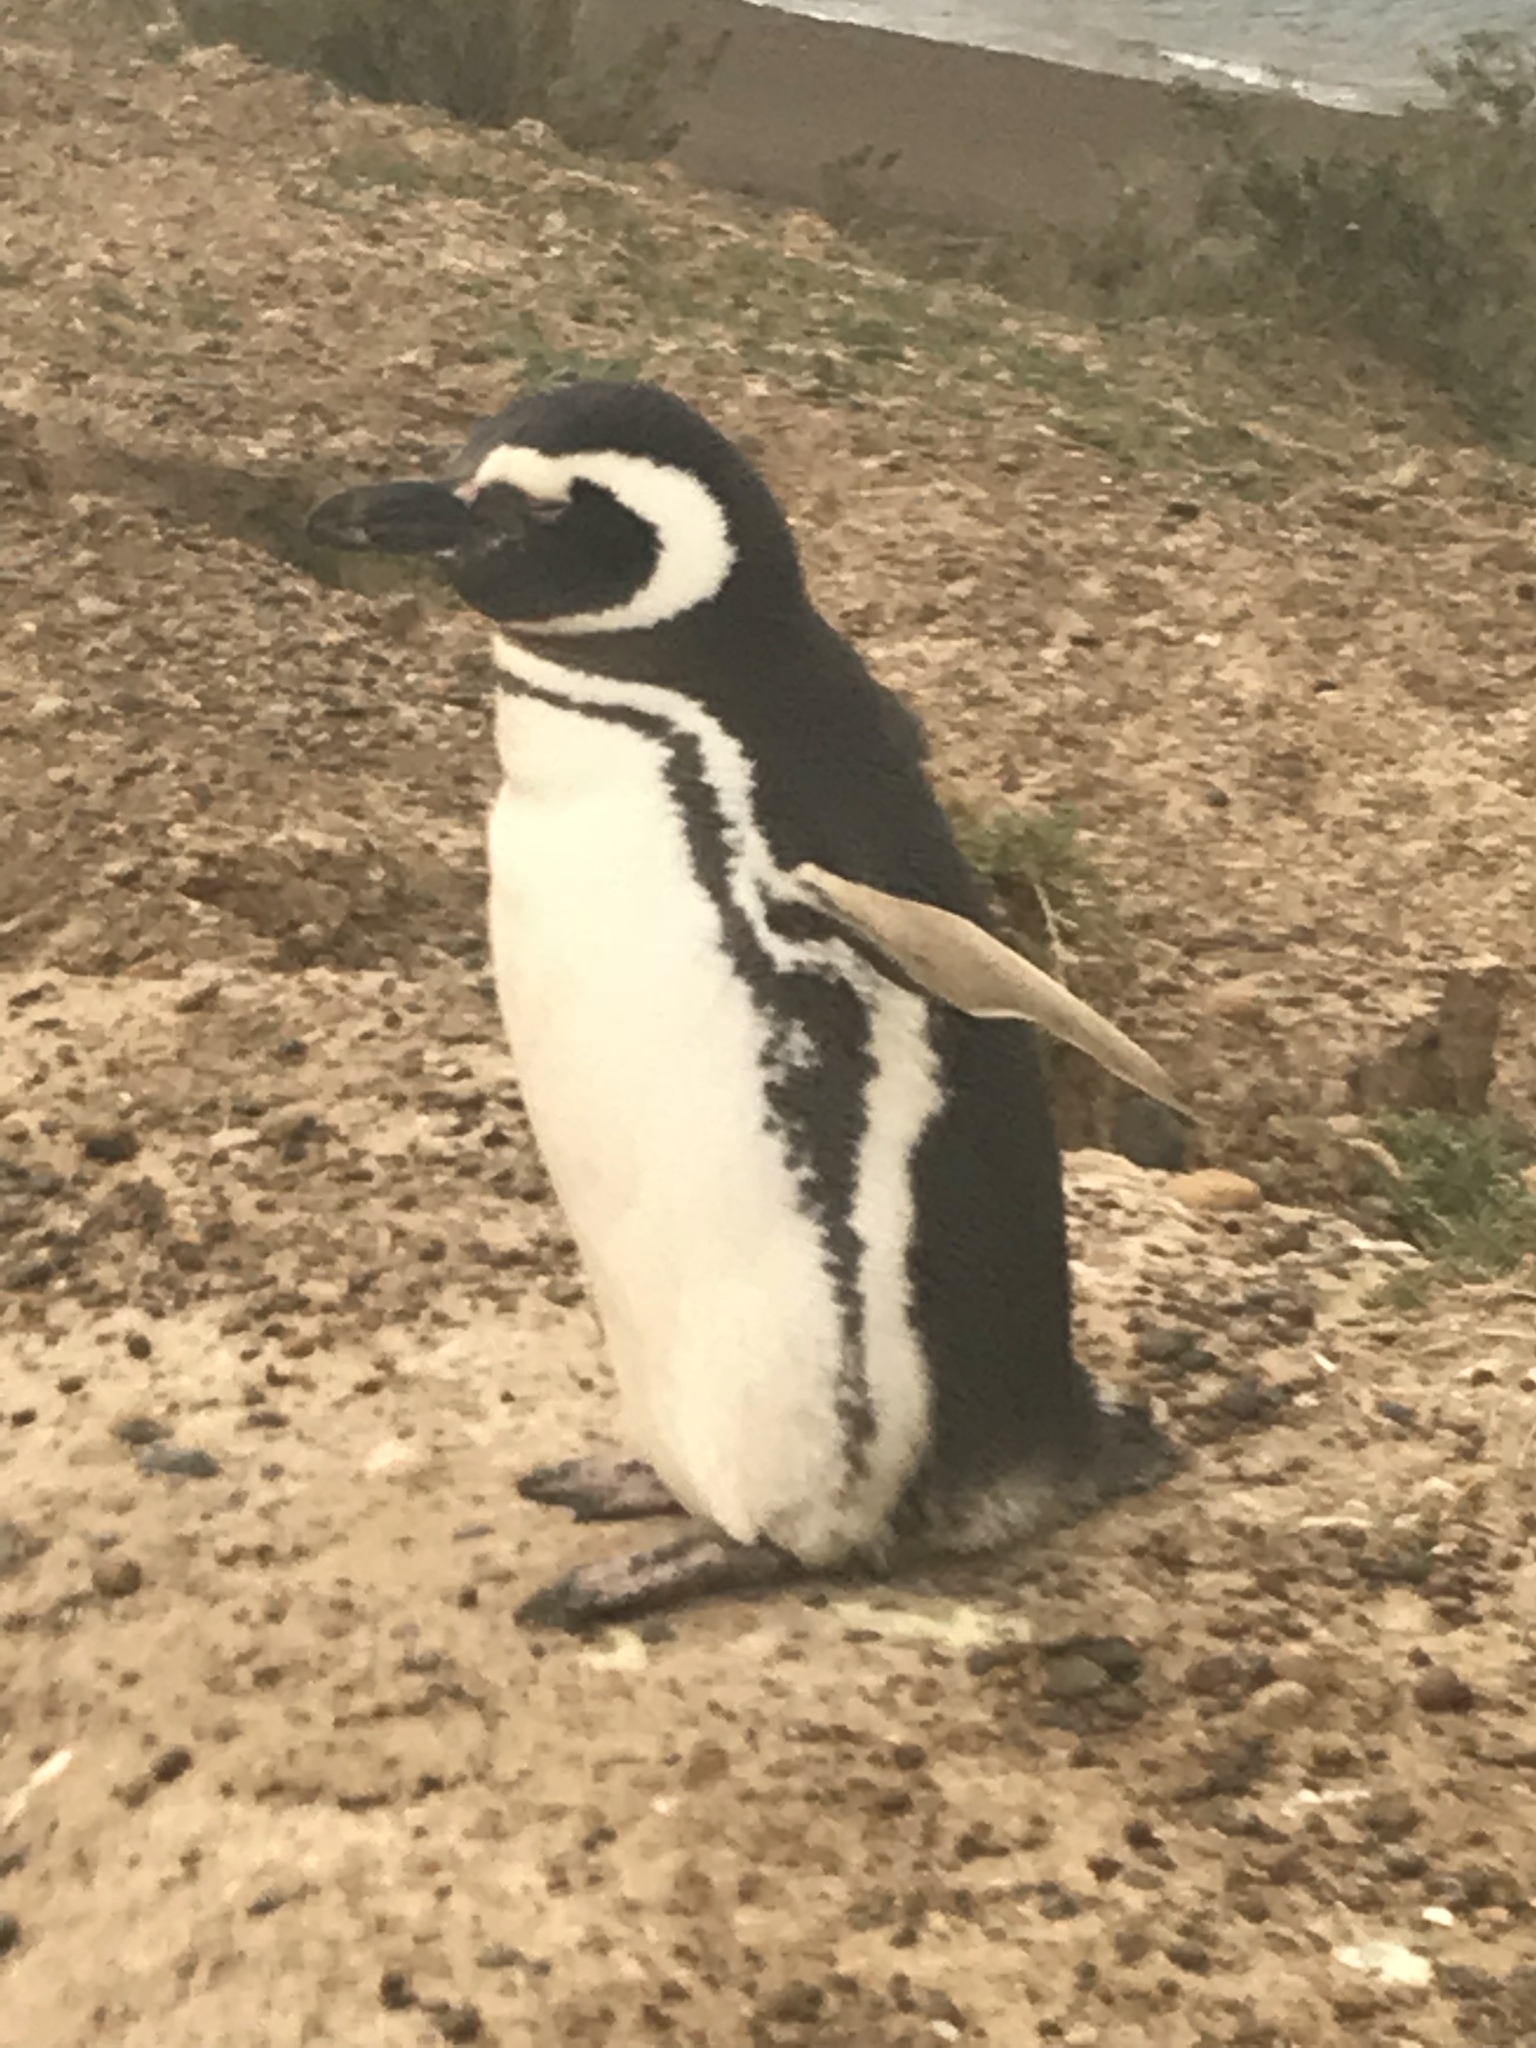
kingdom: Animalia
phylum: Chordata
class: Aves
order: Sphenisciformes
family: Spheniscidae
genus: Spheniscus
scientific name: Spheniscus magellanicus
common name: Magellanic penguin
